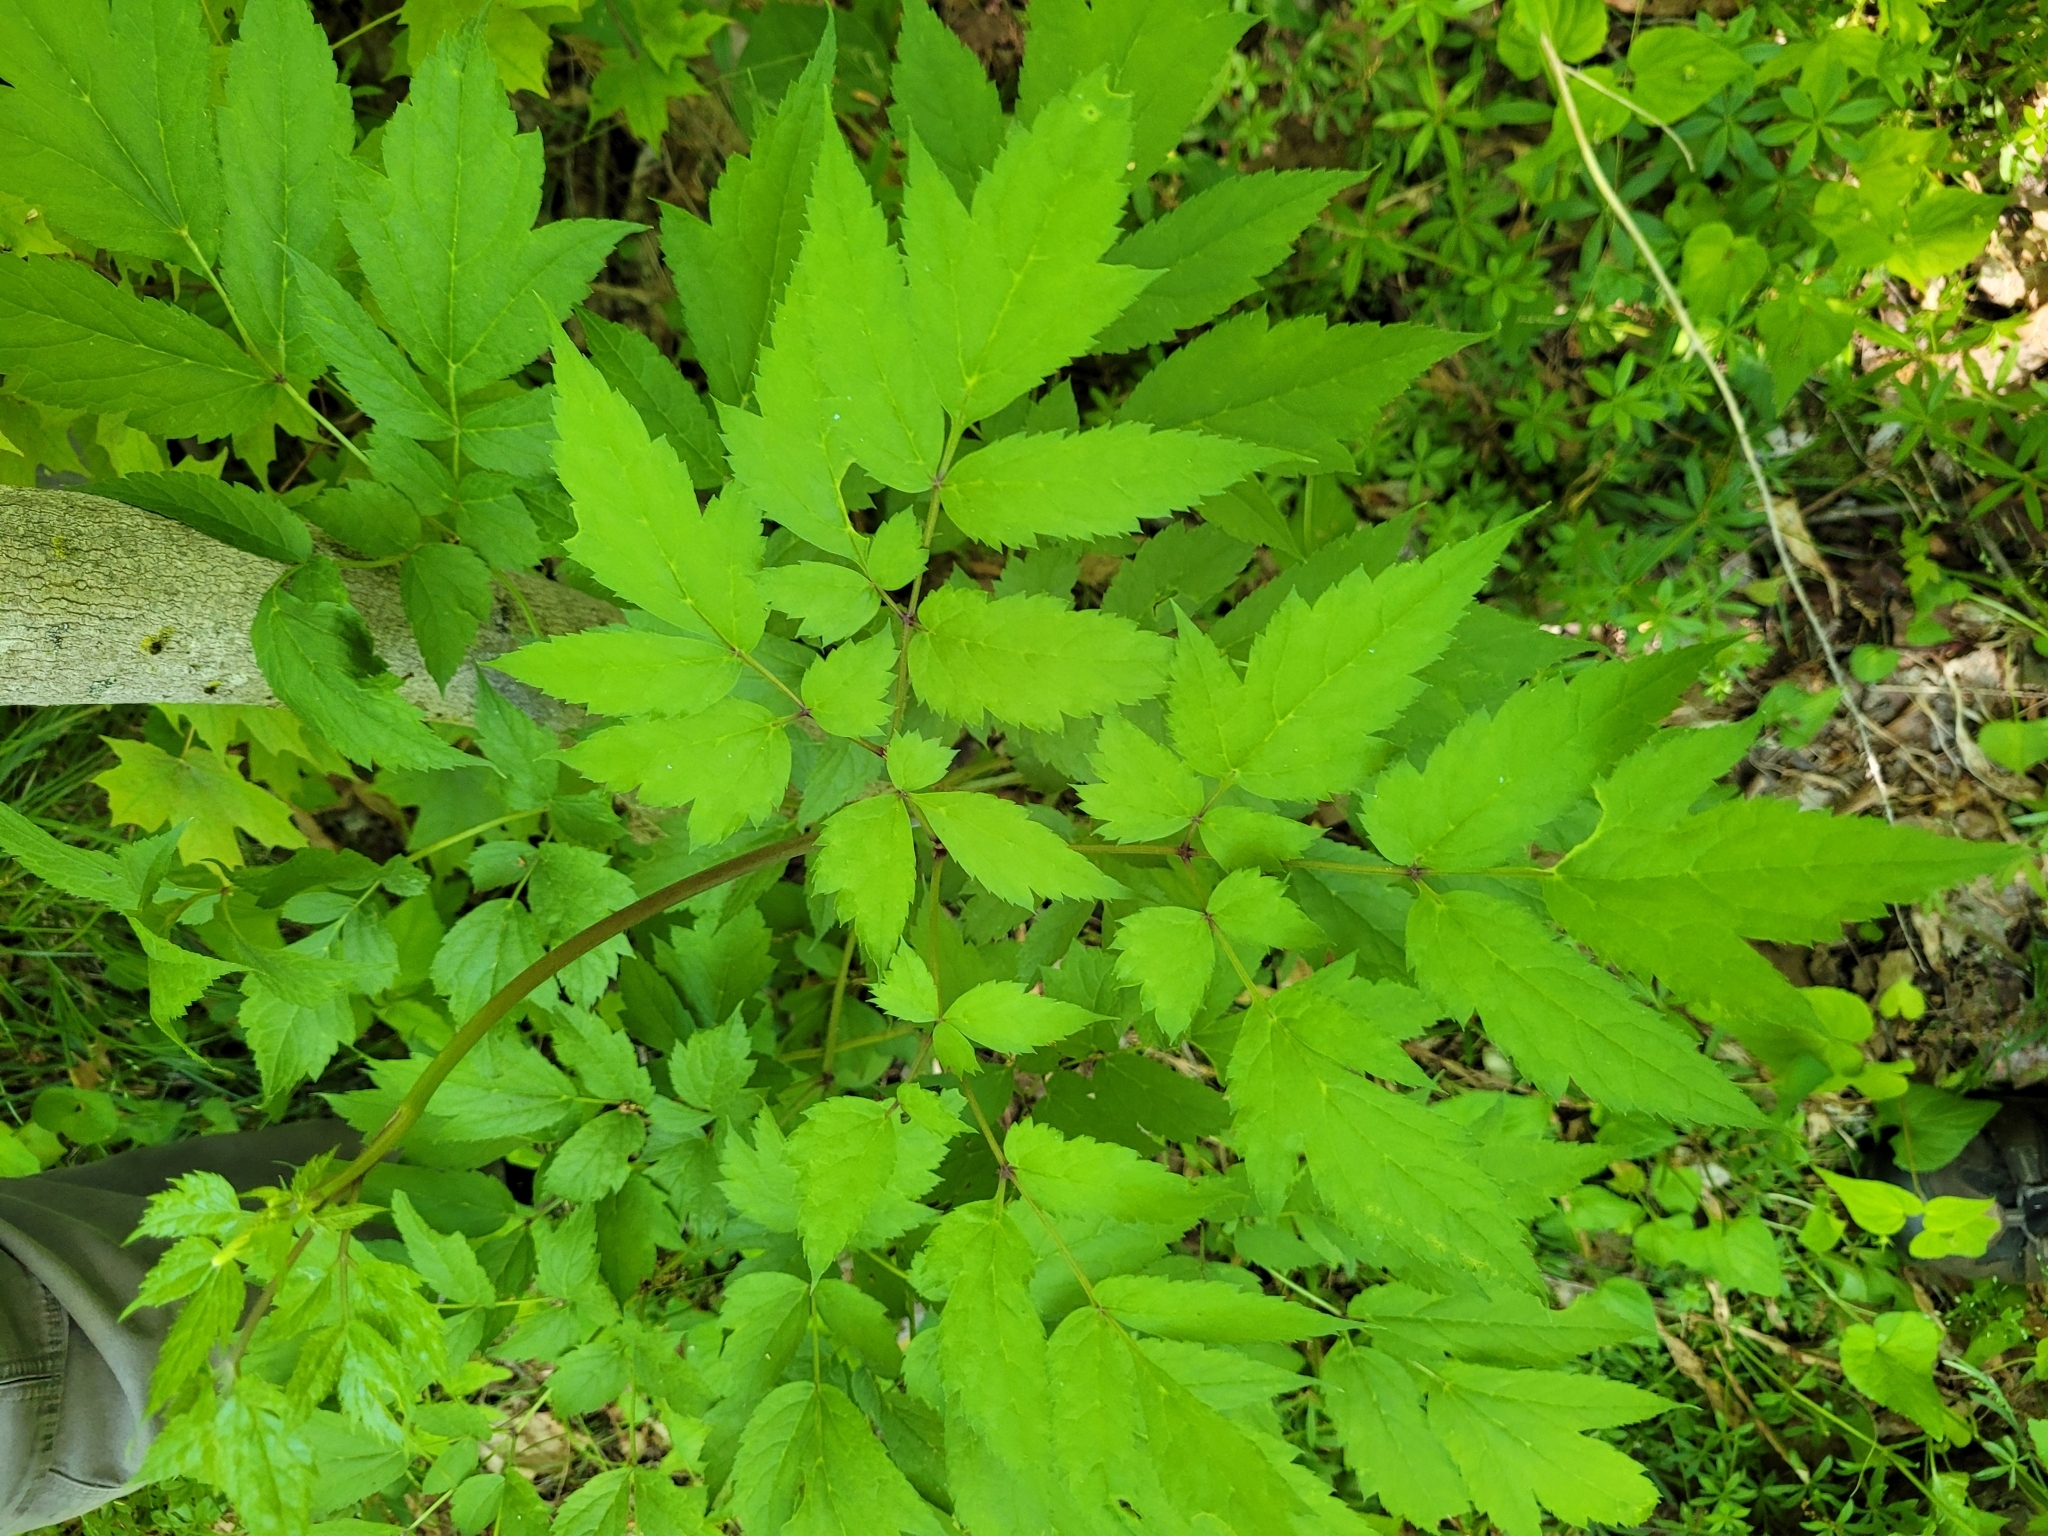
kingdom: Plantae
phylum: Tracheophyta
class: Magnoliopsida
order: Ranunculales
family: Ranunculaceae
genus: Actaea
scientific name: Actaea racemosa
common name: Black cohosh
